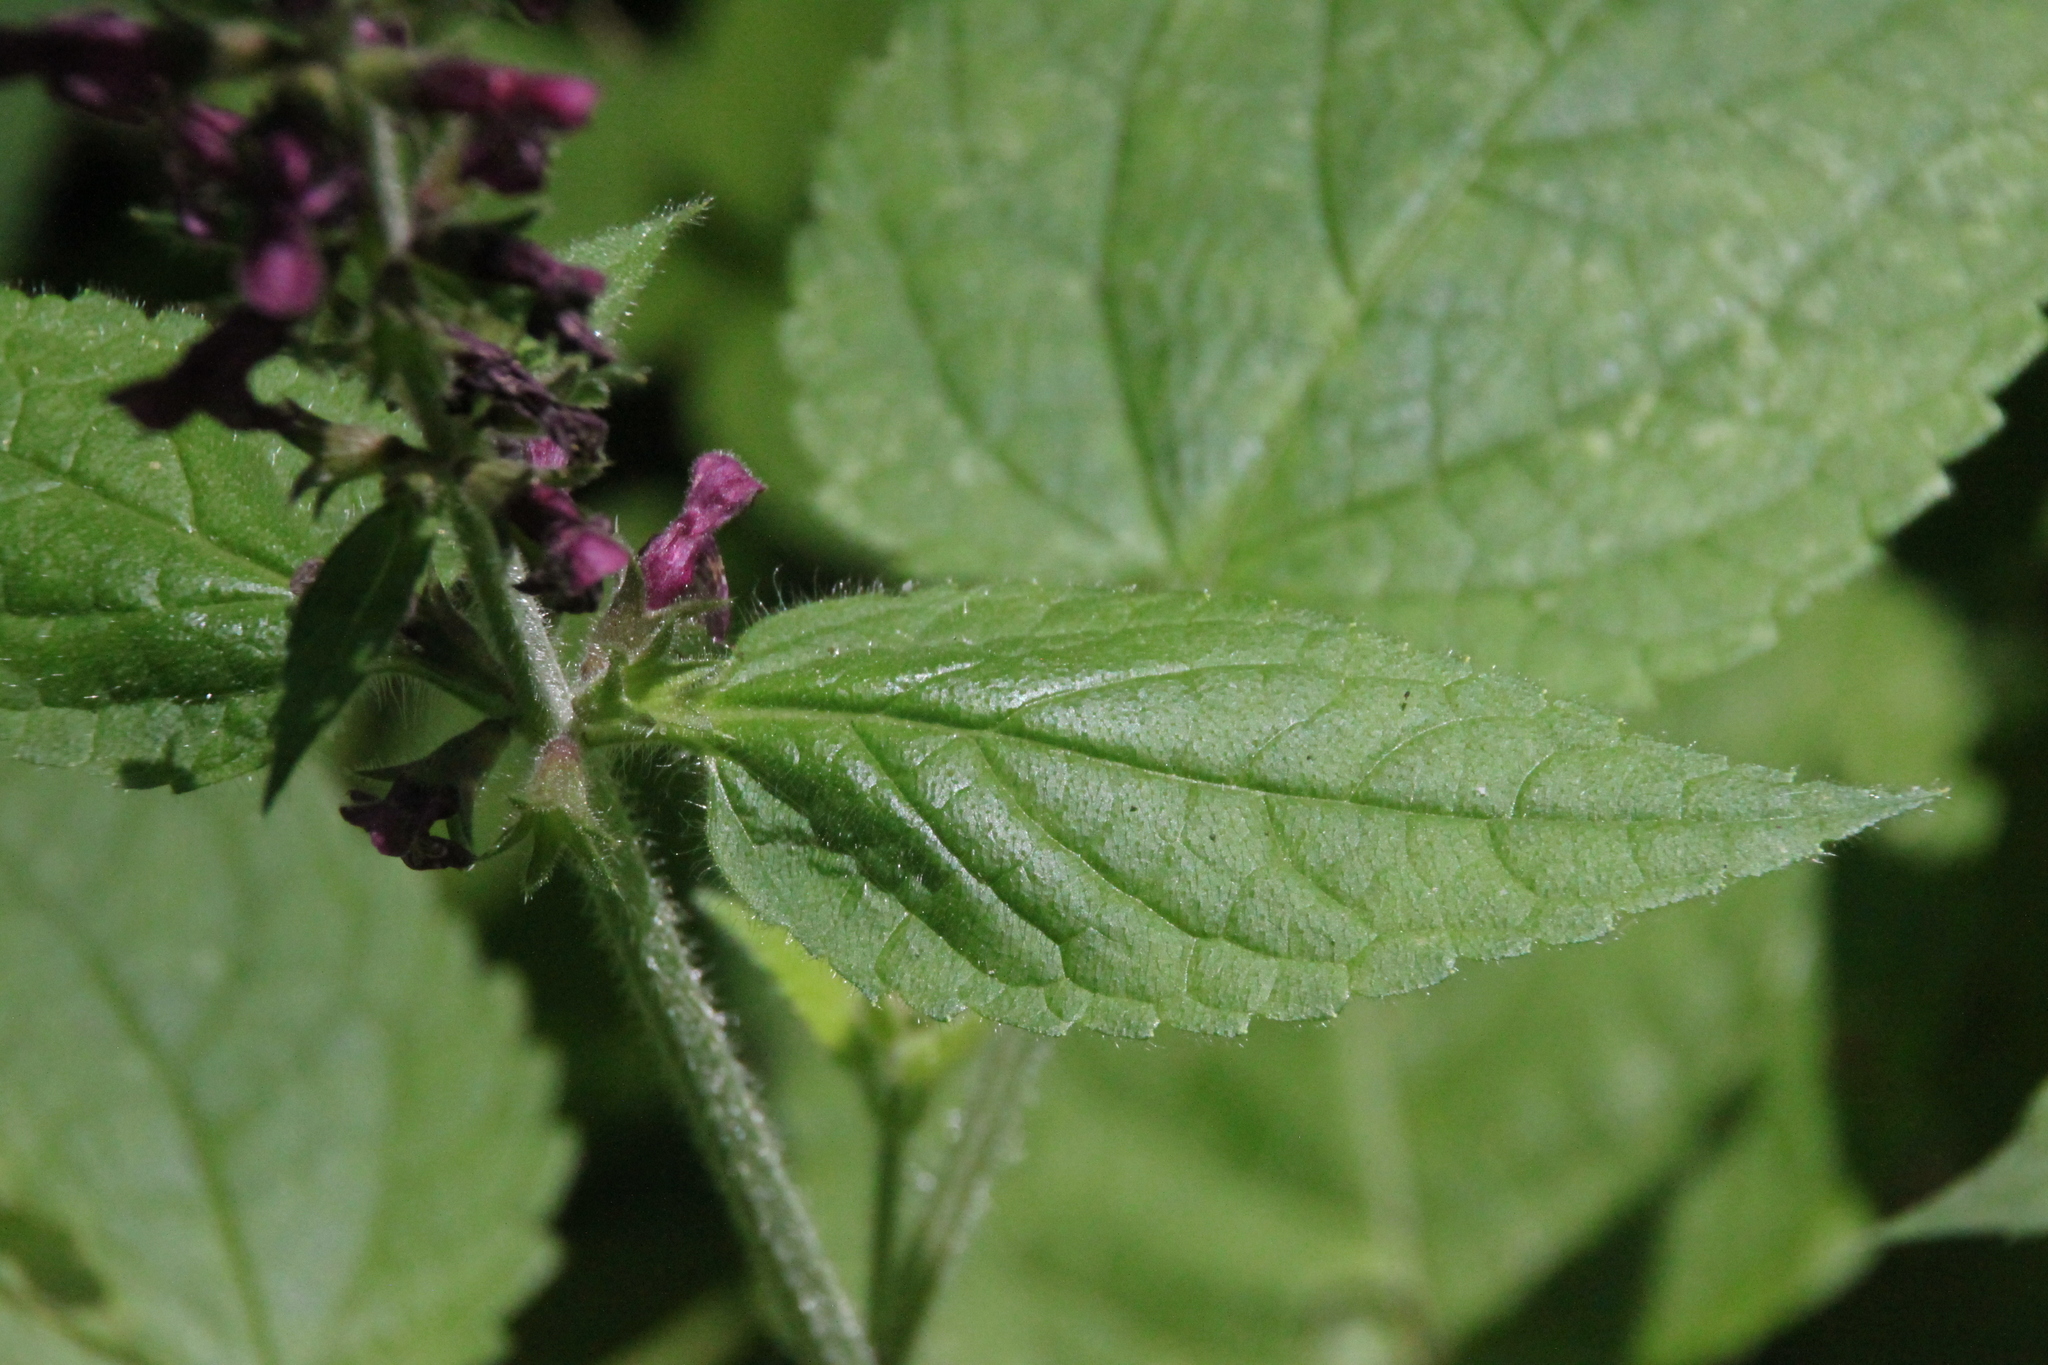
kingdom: Plantae
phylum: Tracheophyta
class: Magnoliopsida
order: Lamiales
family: Lamiaceae
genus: Stachys
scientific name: Stachys sylvatica
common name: Hedge woundwort
